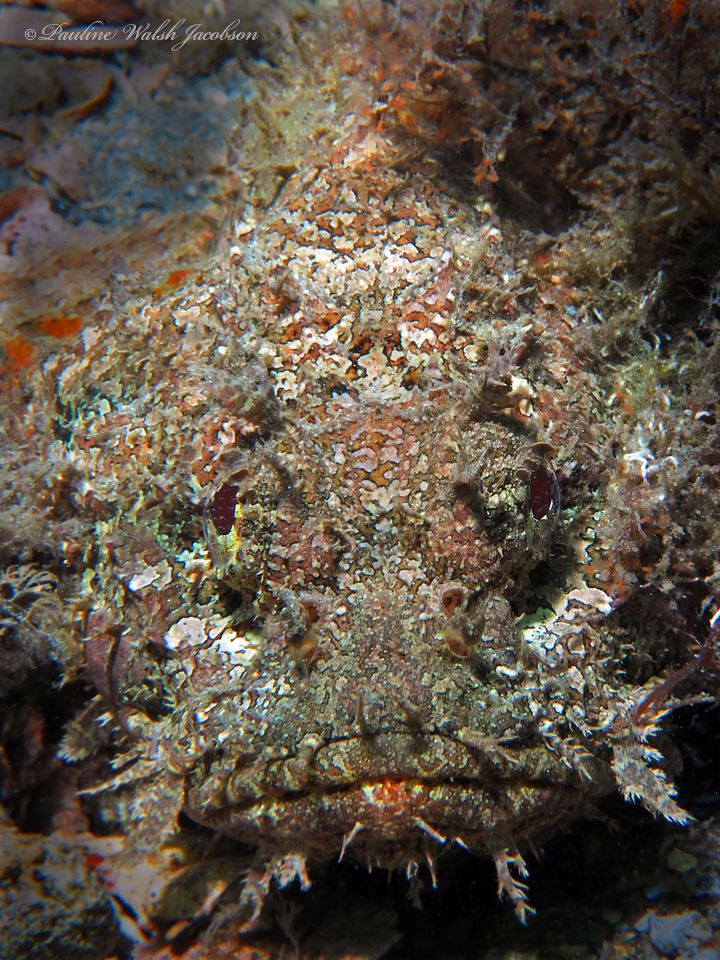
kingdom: Animalia
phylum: Chordata
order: Scorpaeniformes
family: Scorpaenidae
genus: Scorpaena
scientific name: Scorpaena plumieri
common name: Spotted scorpionfish
